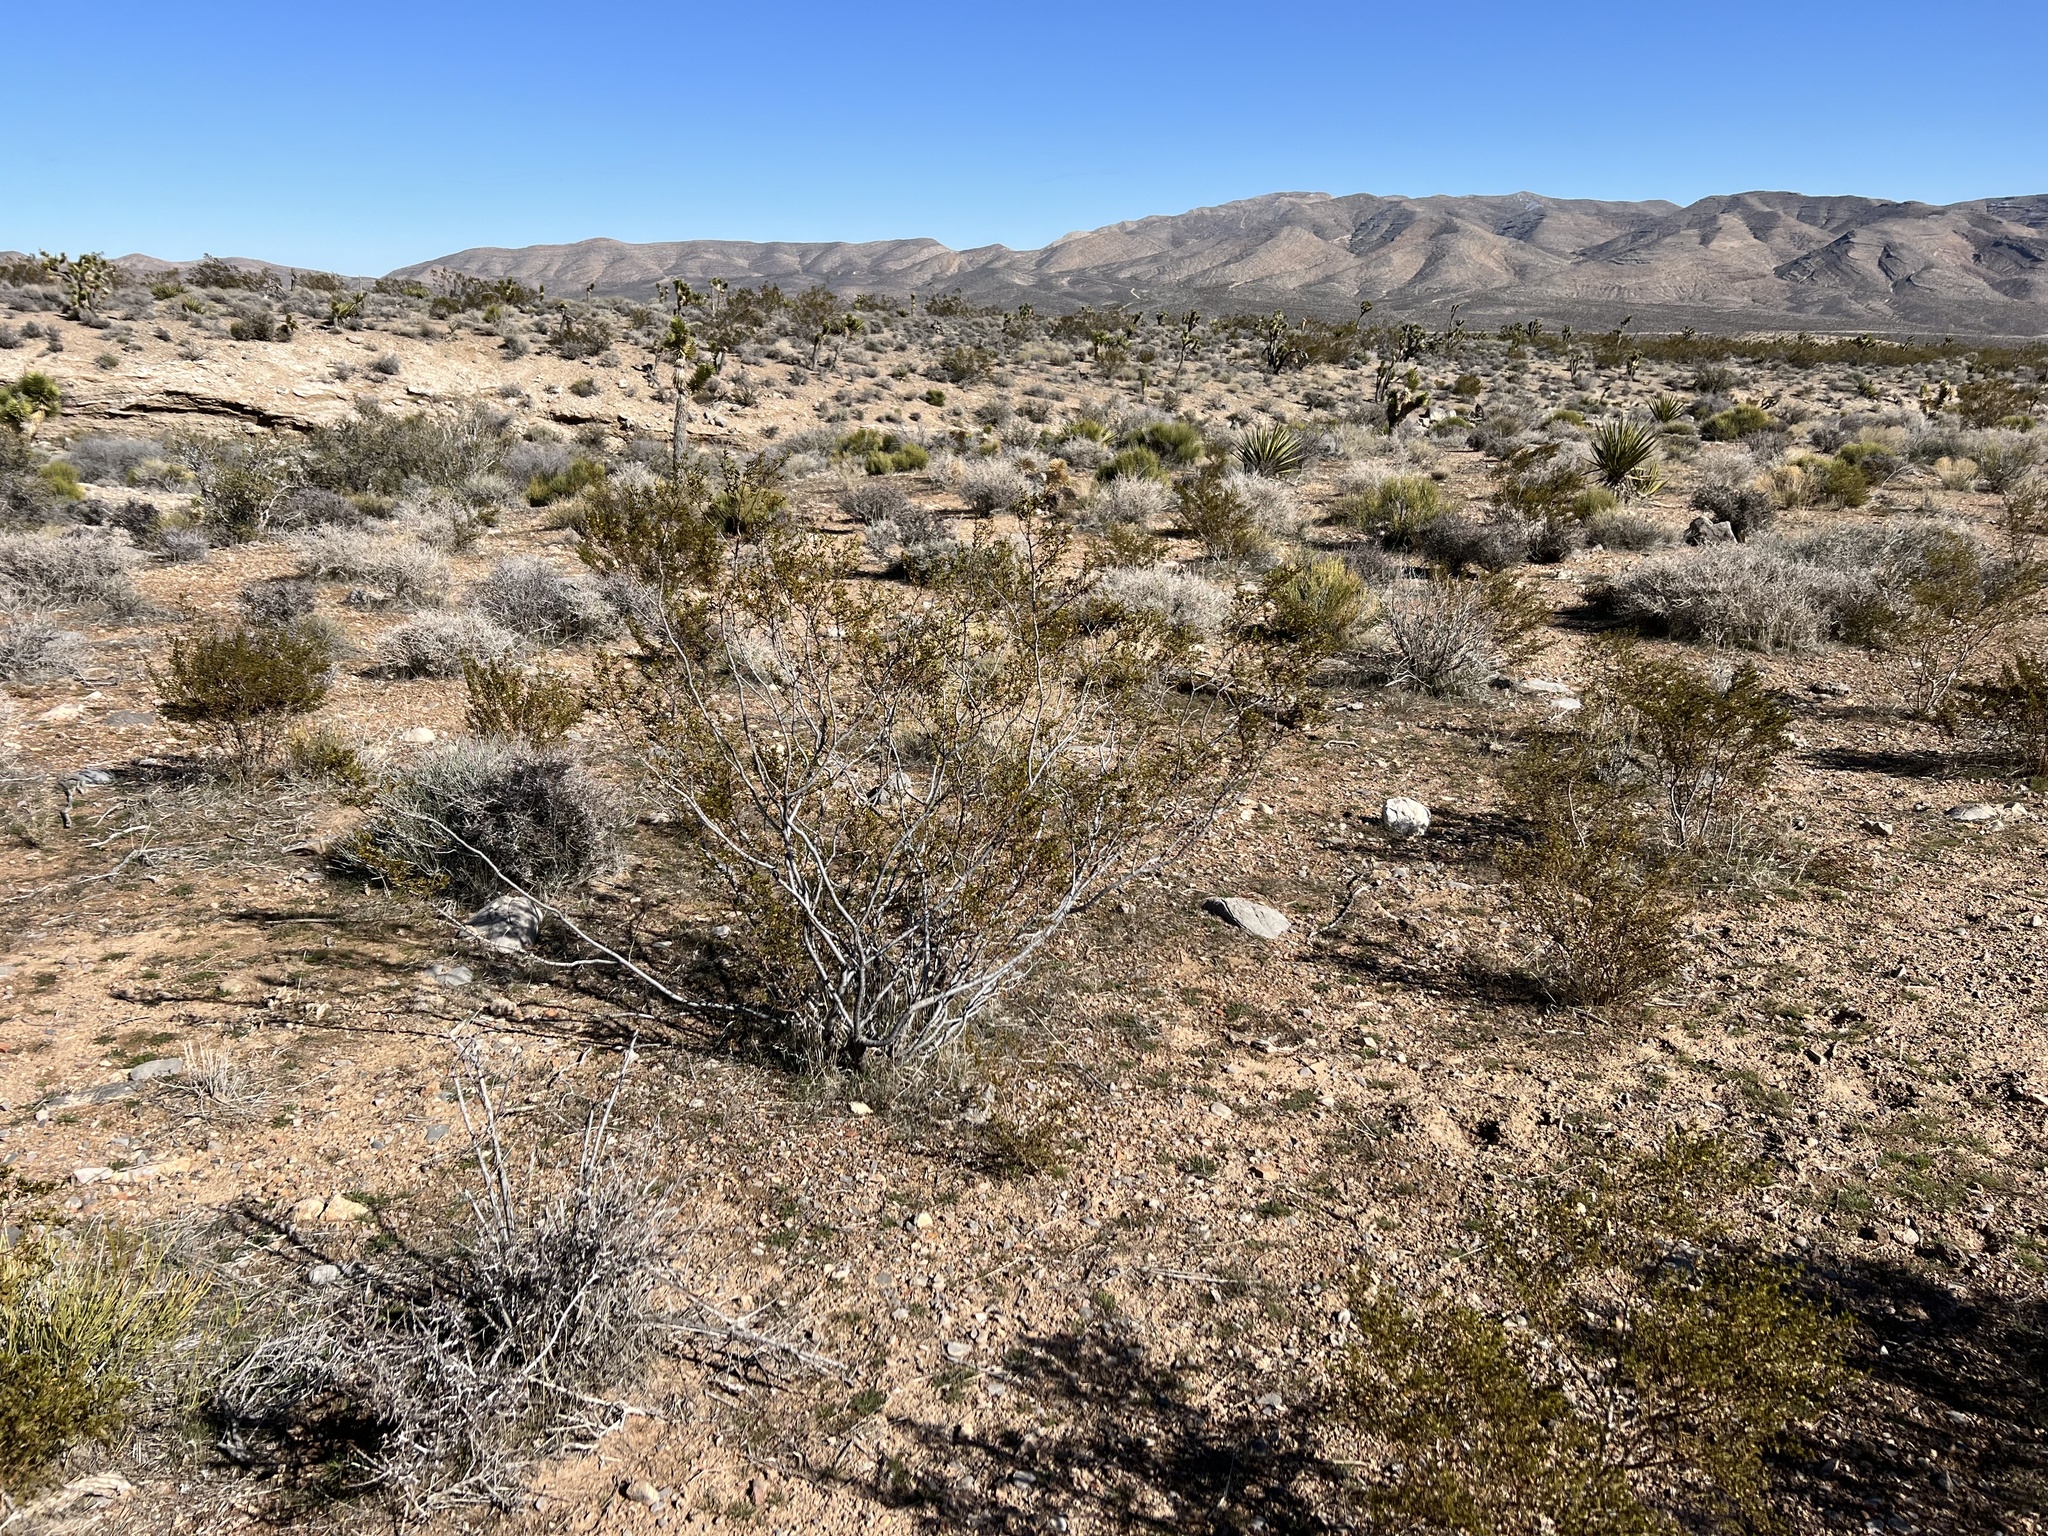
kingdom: Plantae
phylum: Tracheophyta
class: Magnoliopsida
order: Zygophyllales
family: Zygophyllaceae
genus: Larrea
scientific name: Larrea tridentata
